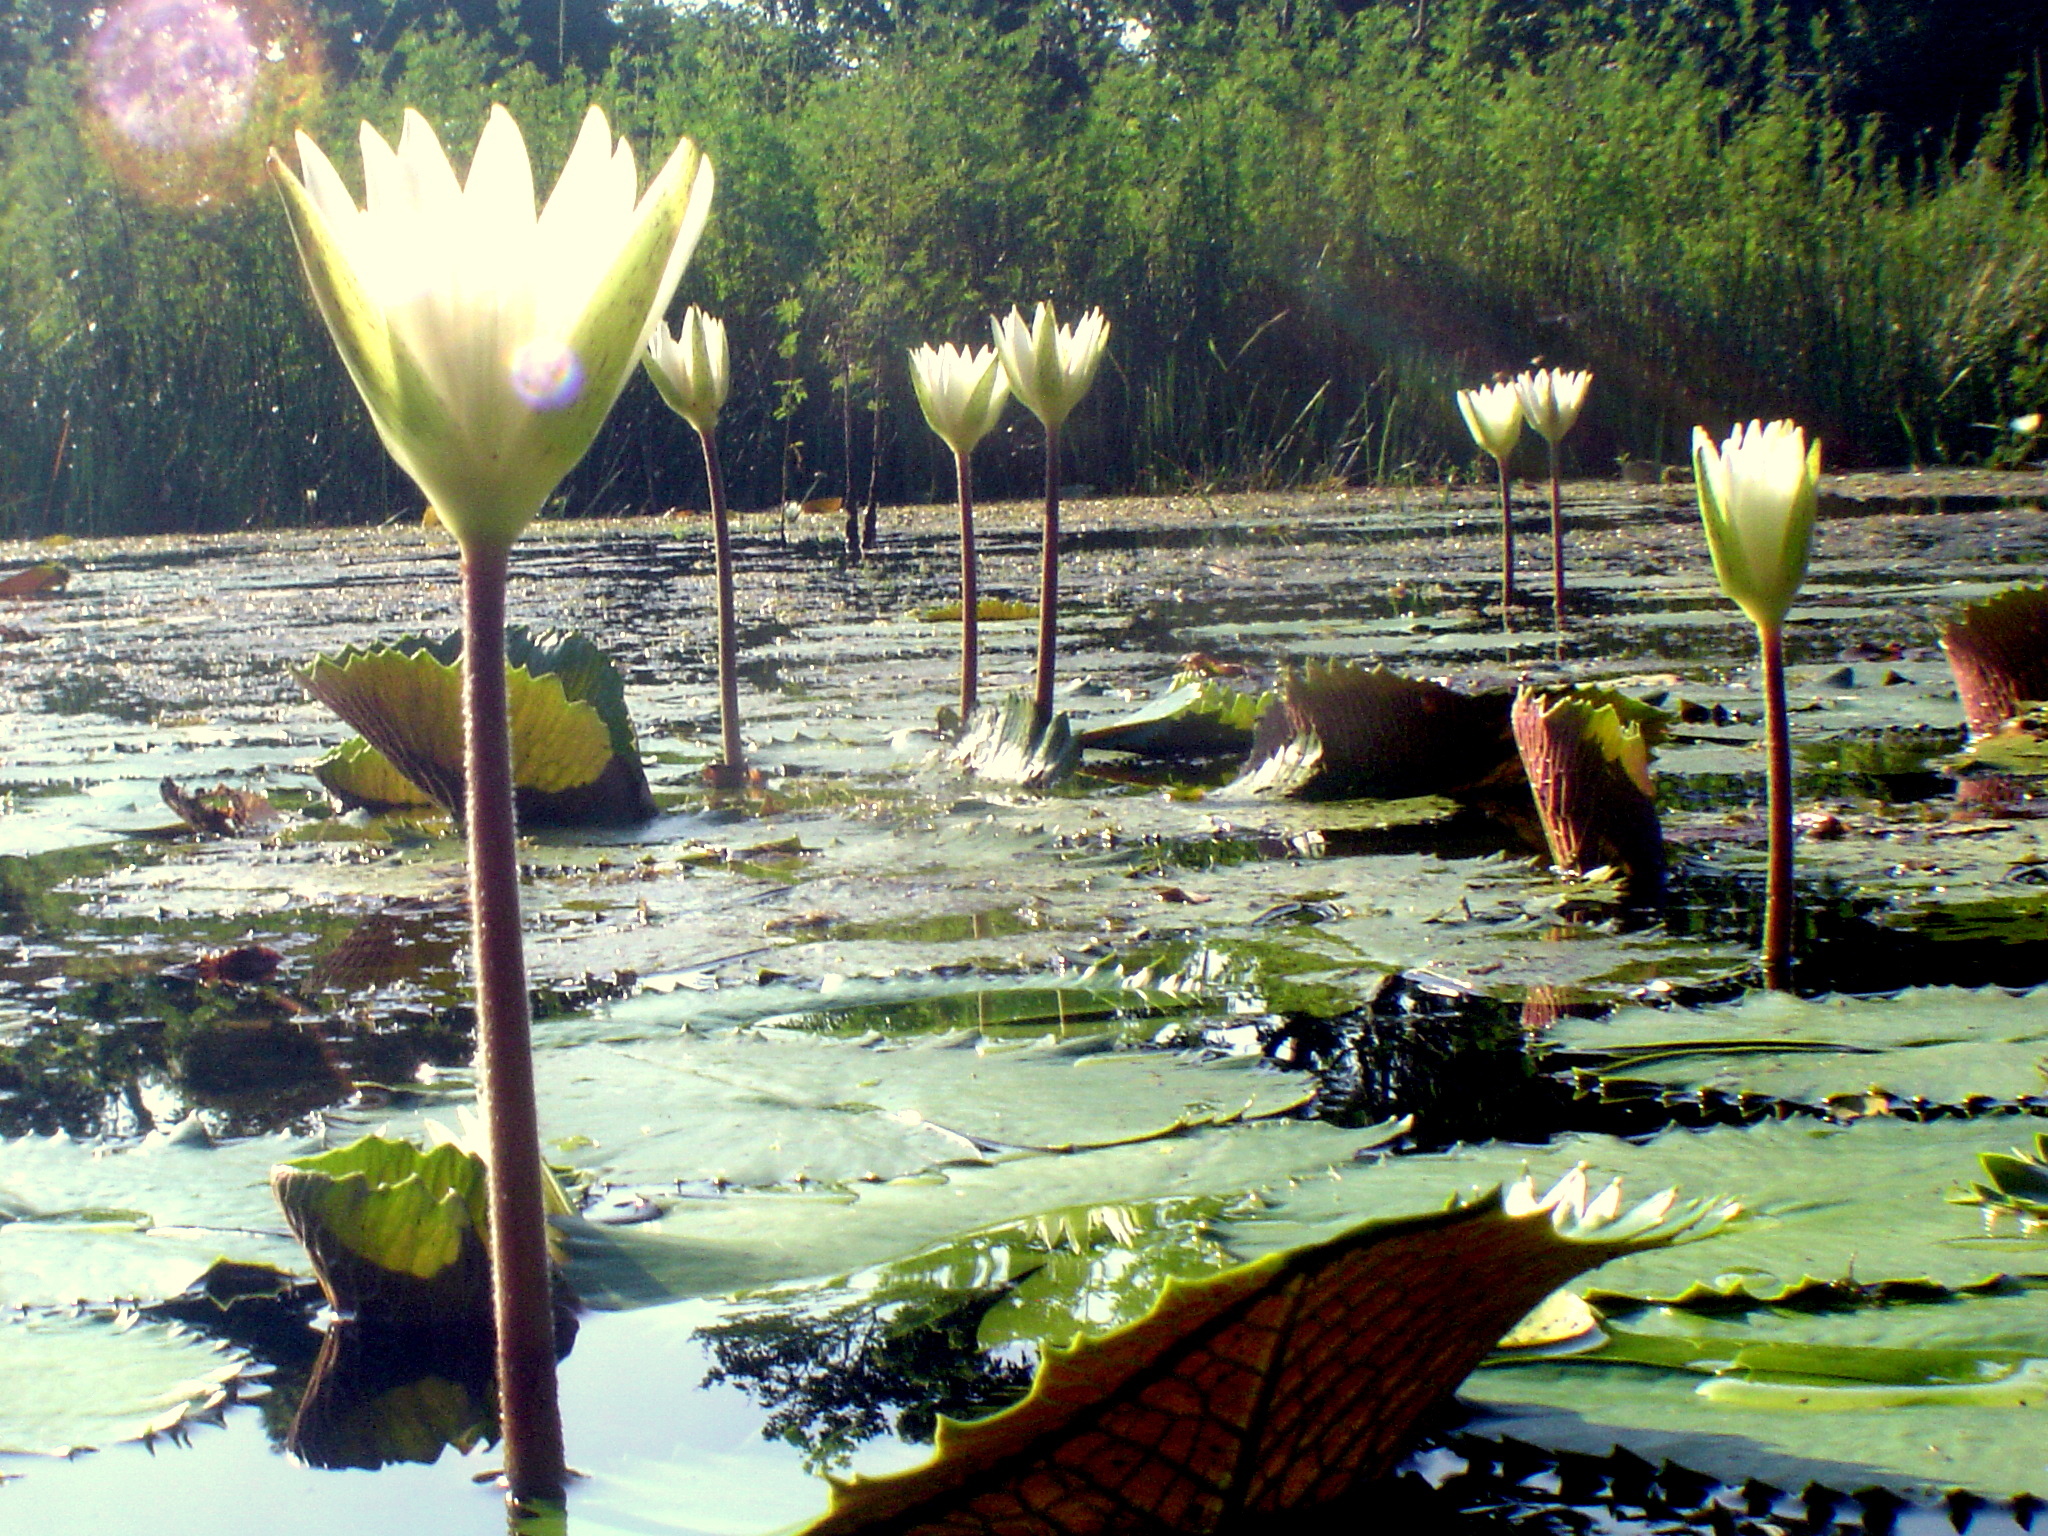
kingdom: Plantae
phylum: Tracheophyta
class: Magnoliopsida
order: Nymphaeales
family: Nymphaeaceae
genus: Nymphaea
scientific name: Nymphaea ampla
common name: Dotleaf waterlily
